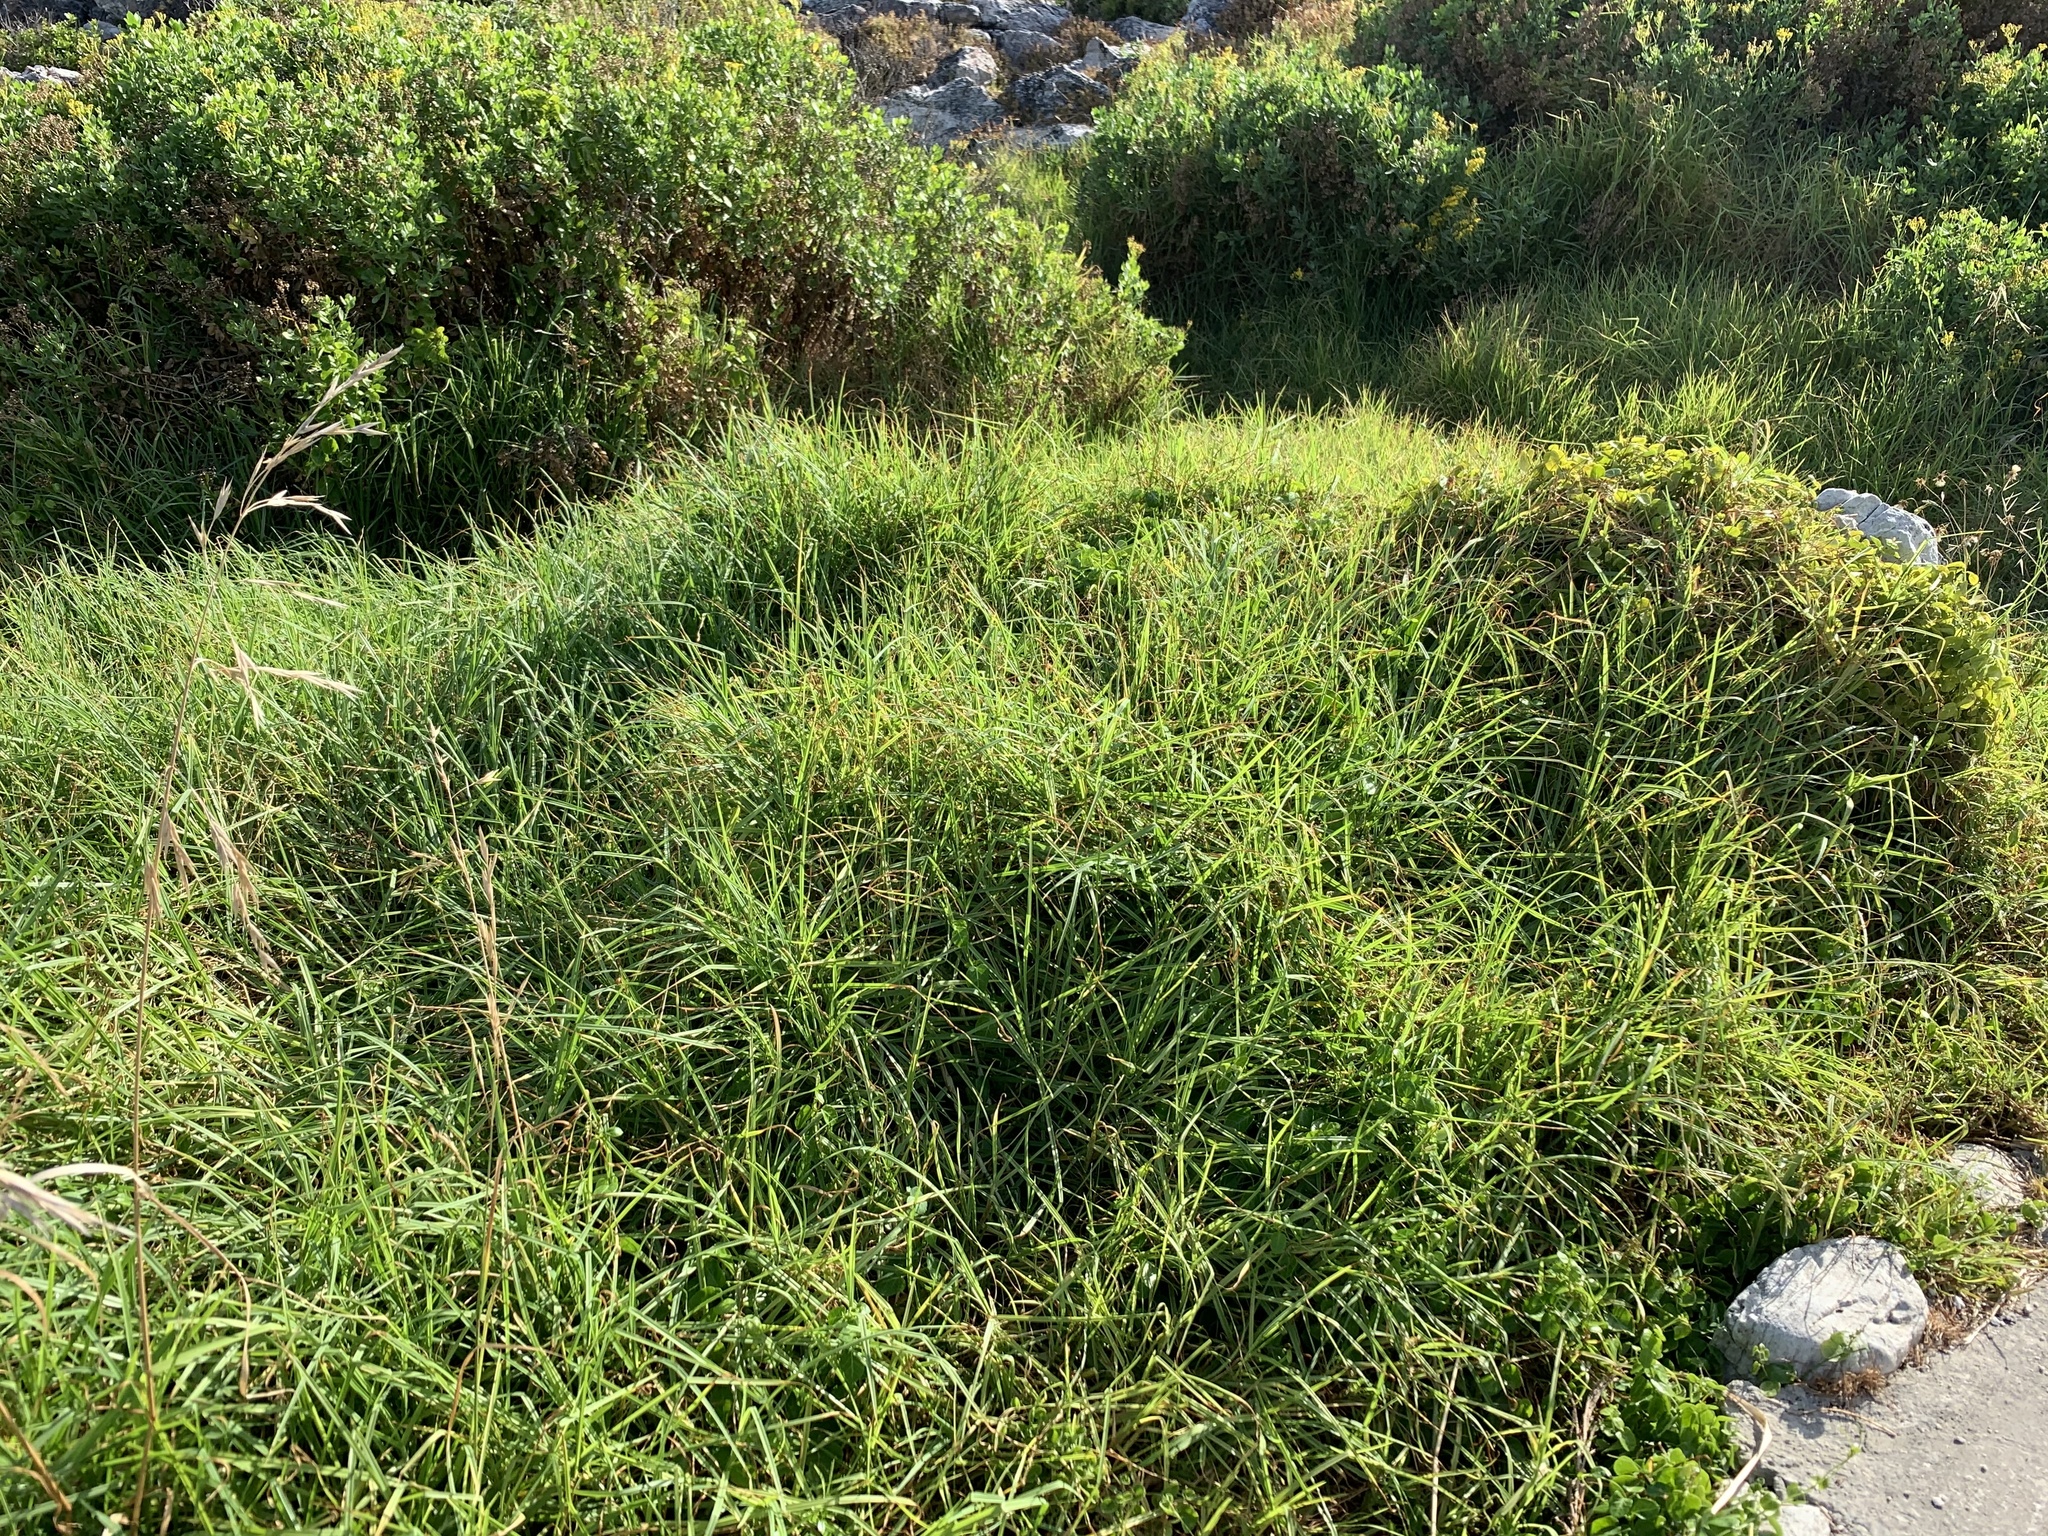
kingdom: Plantae
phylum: Tracheophyta
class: Liliopsida
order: Poales
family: Poaceae
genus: Cenchrus
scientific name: Cenchrus clandestinus
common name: Kikuyugrass
